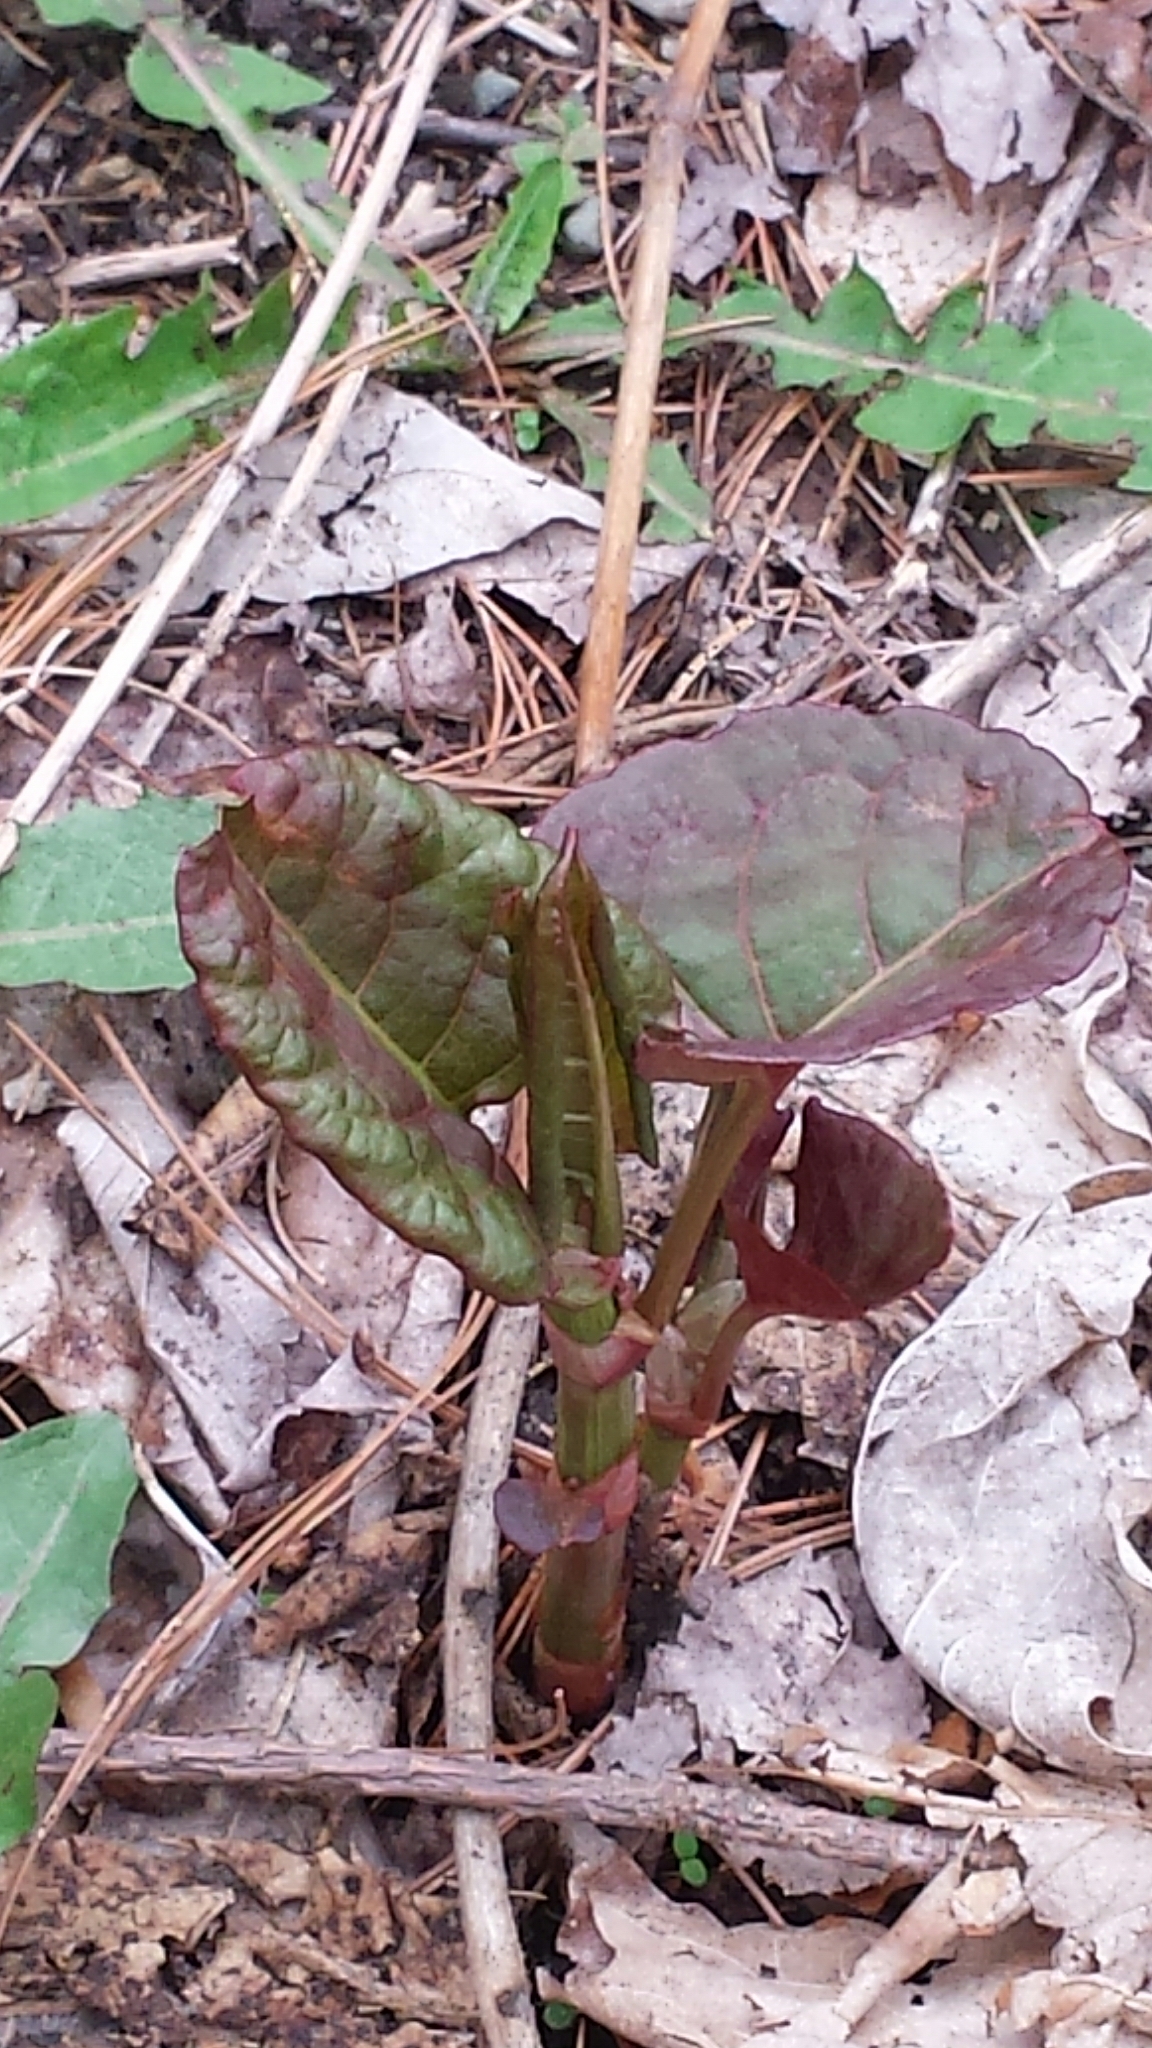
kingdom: Plantae
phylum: Tracheophyta
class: Magnoliopsida
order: Caryophyllales
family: Polygonaceae
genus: Reynoutria
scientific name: Reynoutria japonica
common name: Japanese knotweed
